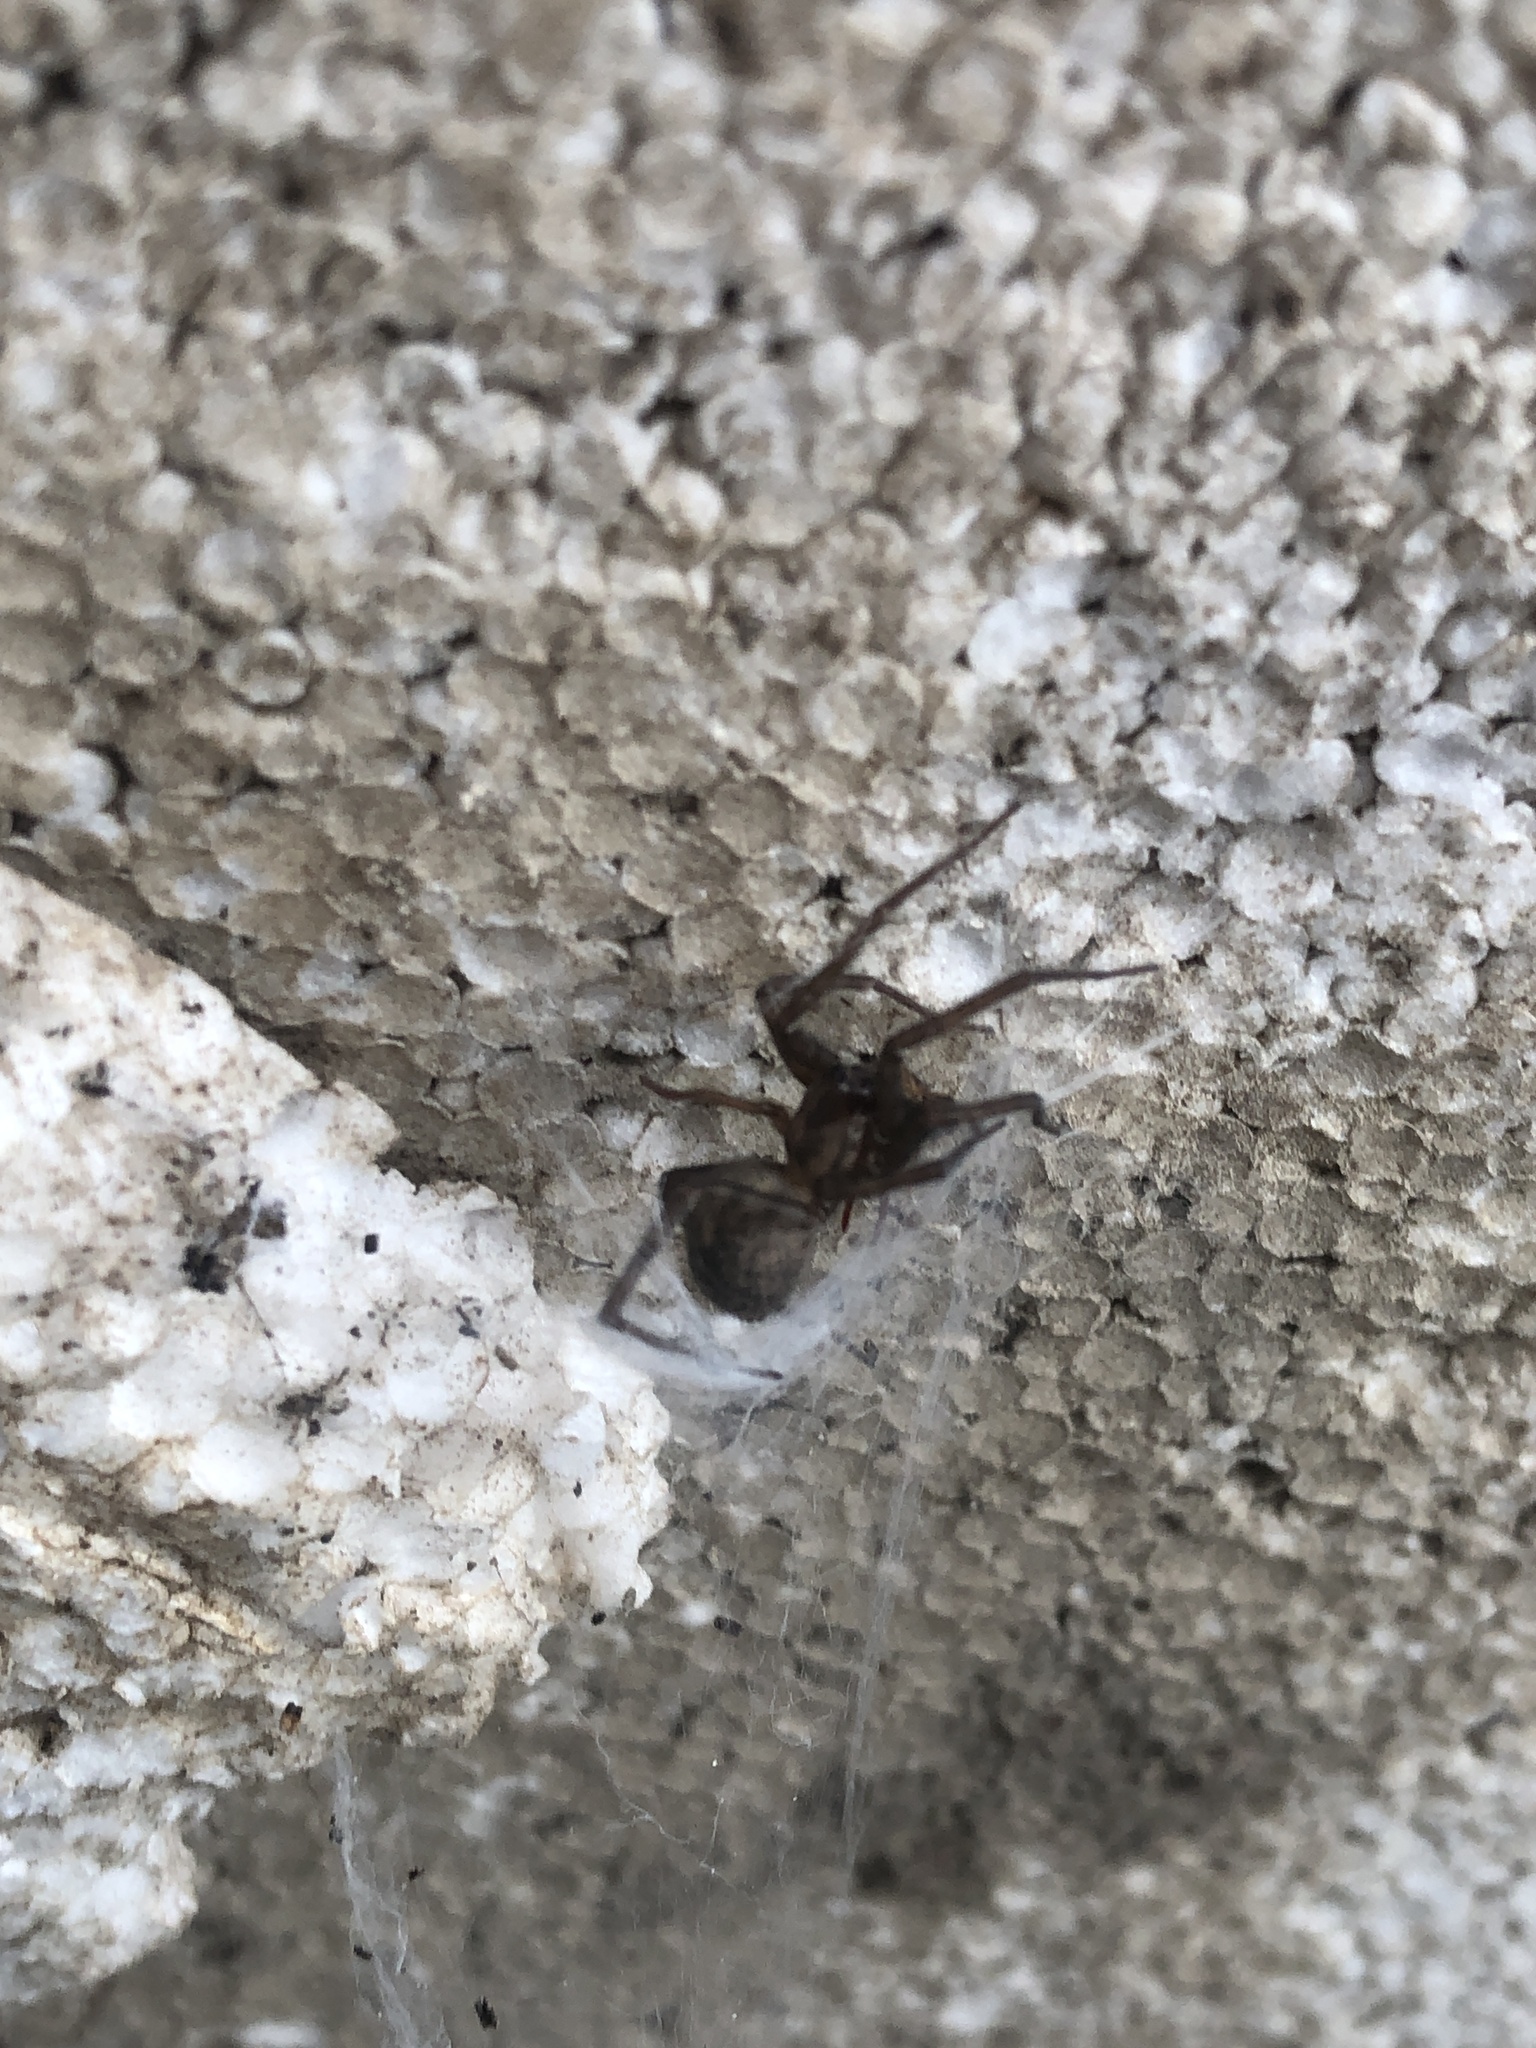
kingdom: Animalia
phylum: Arthropoda
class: Arachnida
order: Araneae
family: Agelenidae
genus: Tegenaria
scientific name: Tegenaria domestica
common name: Barn funnel weaver
